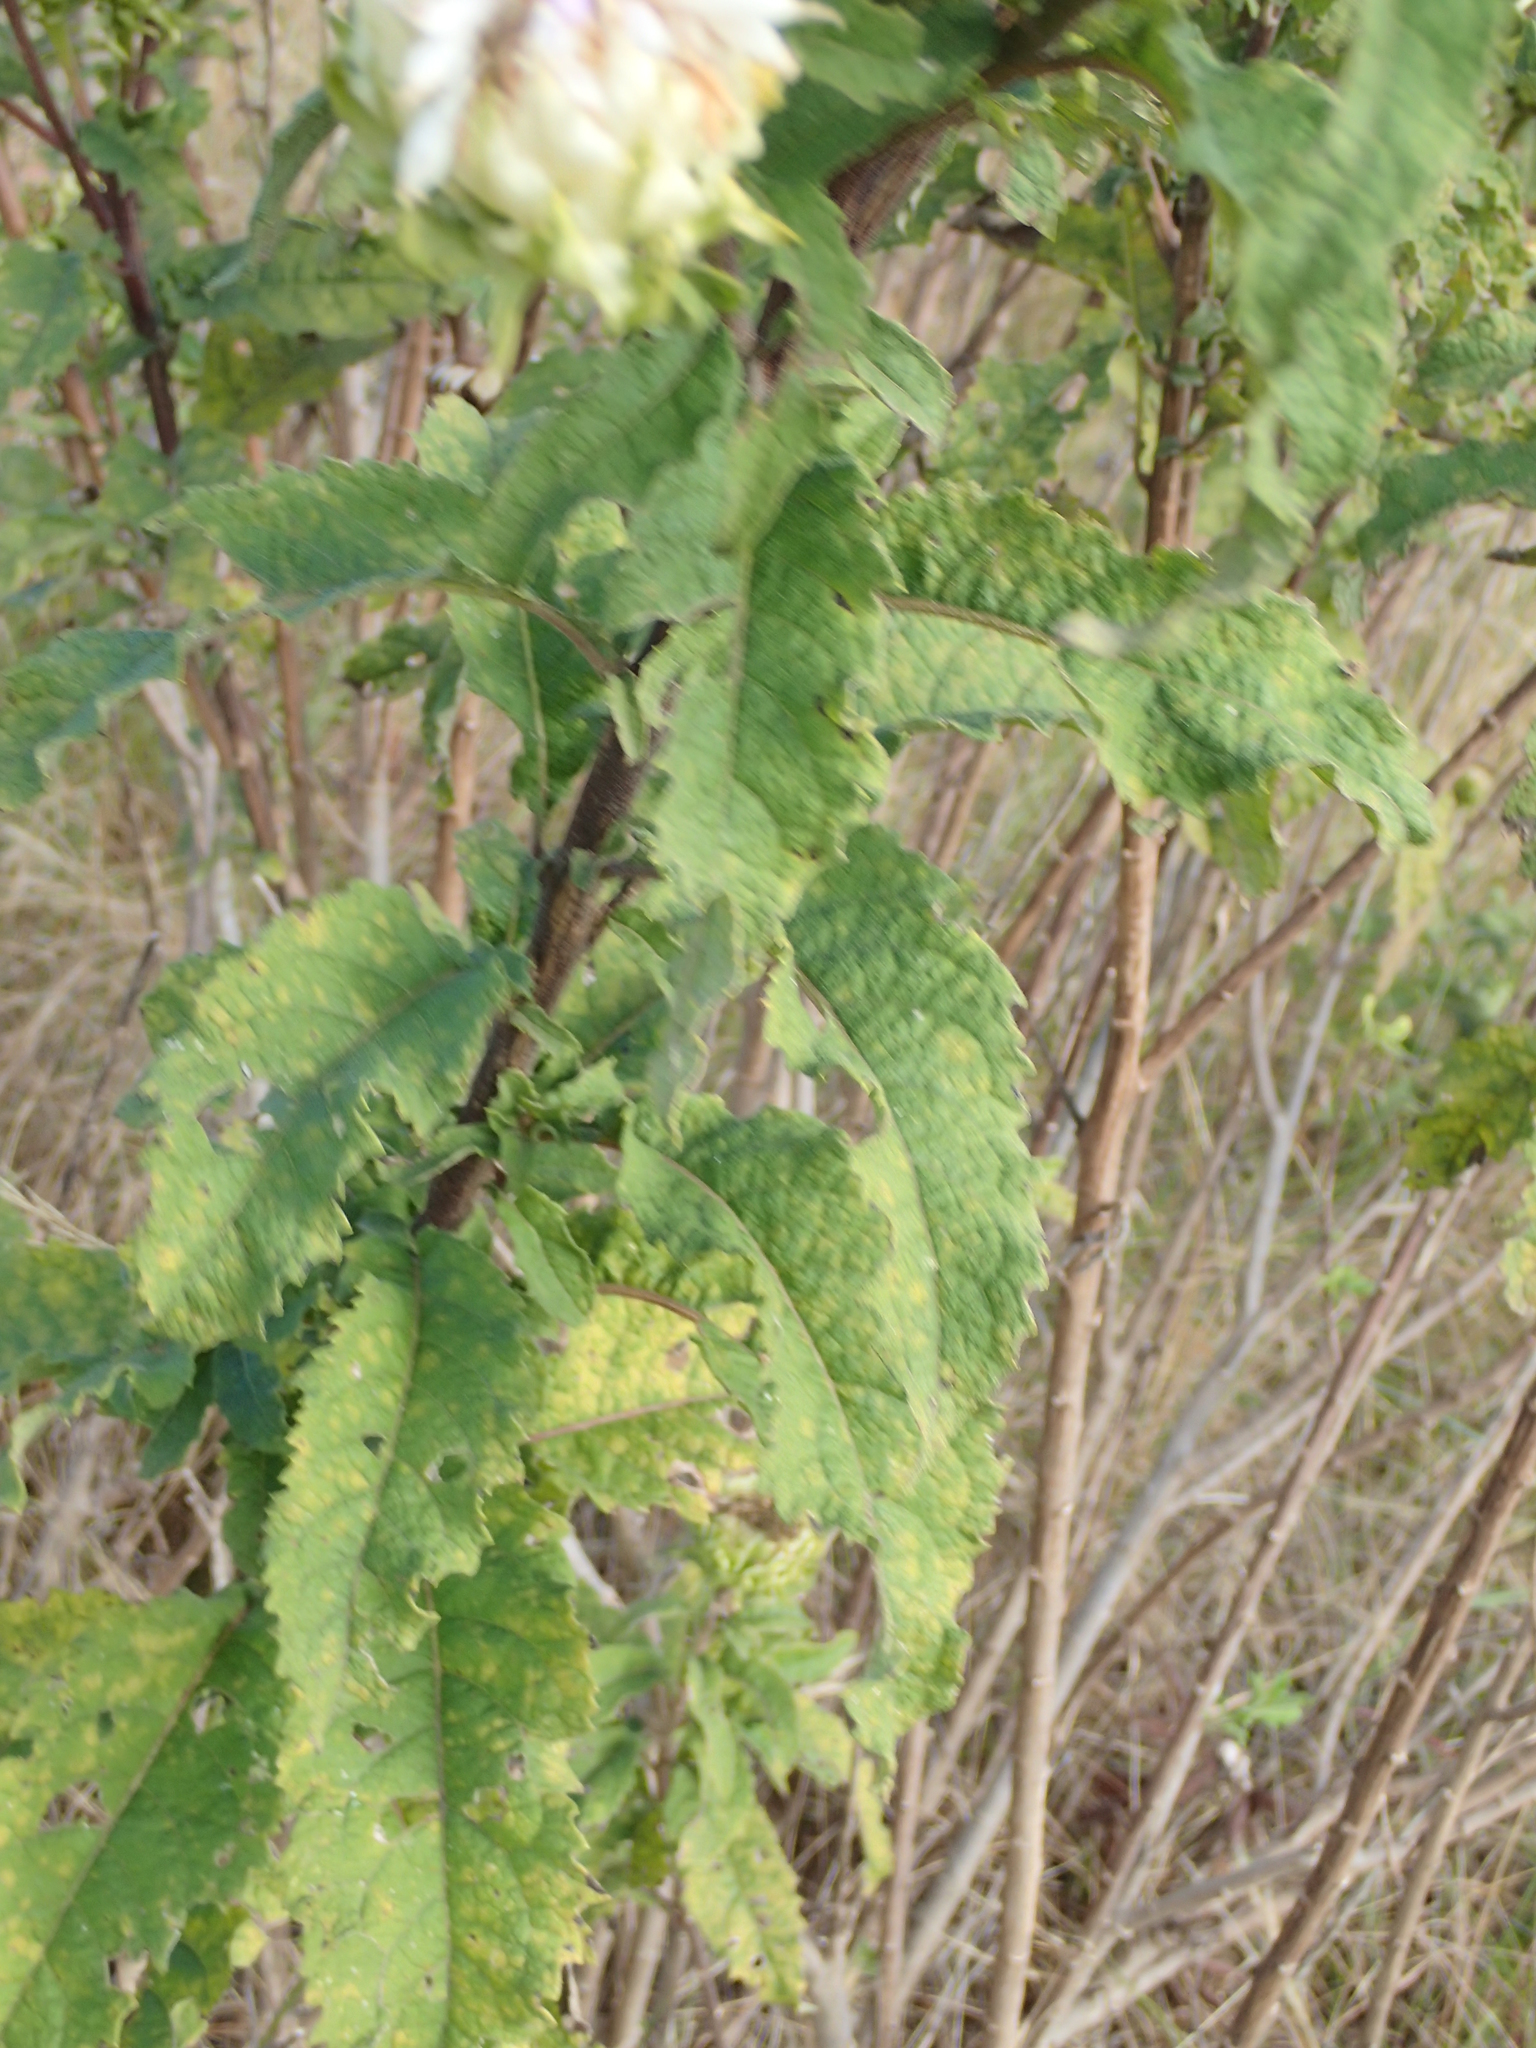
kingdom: Plantae
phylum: Tracheophyta
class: Magnoliopsida
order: Asterales
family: Asteraceae
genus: Vernonia
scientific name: Vernonia colorata
